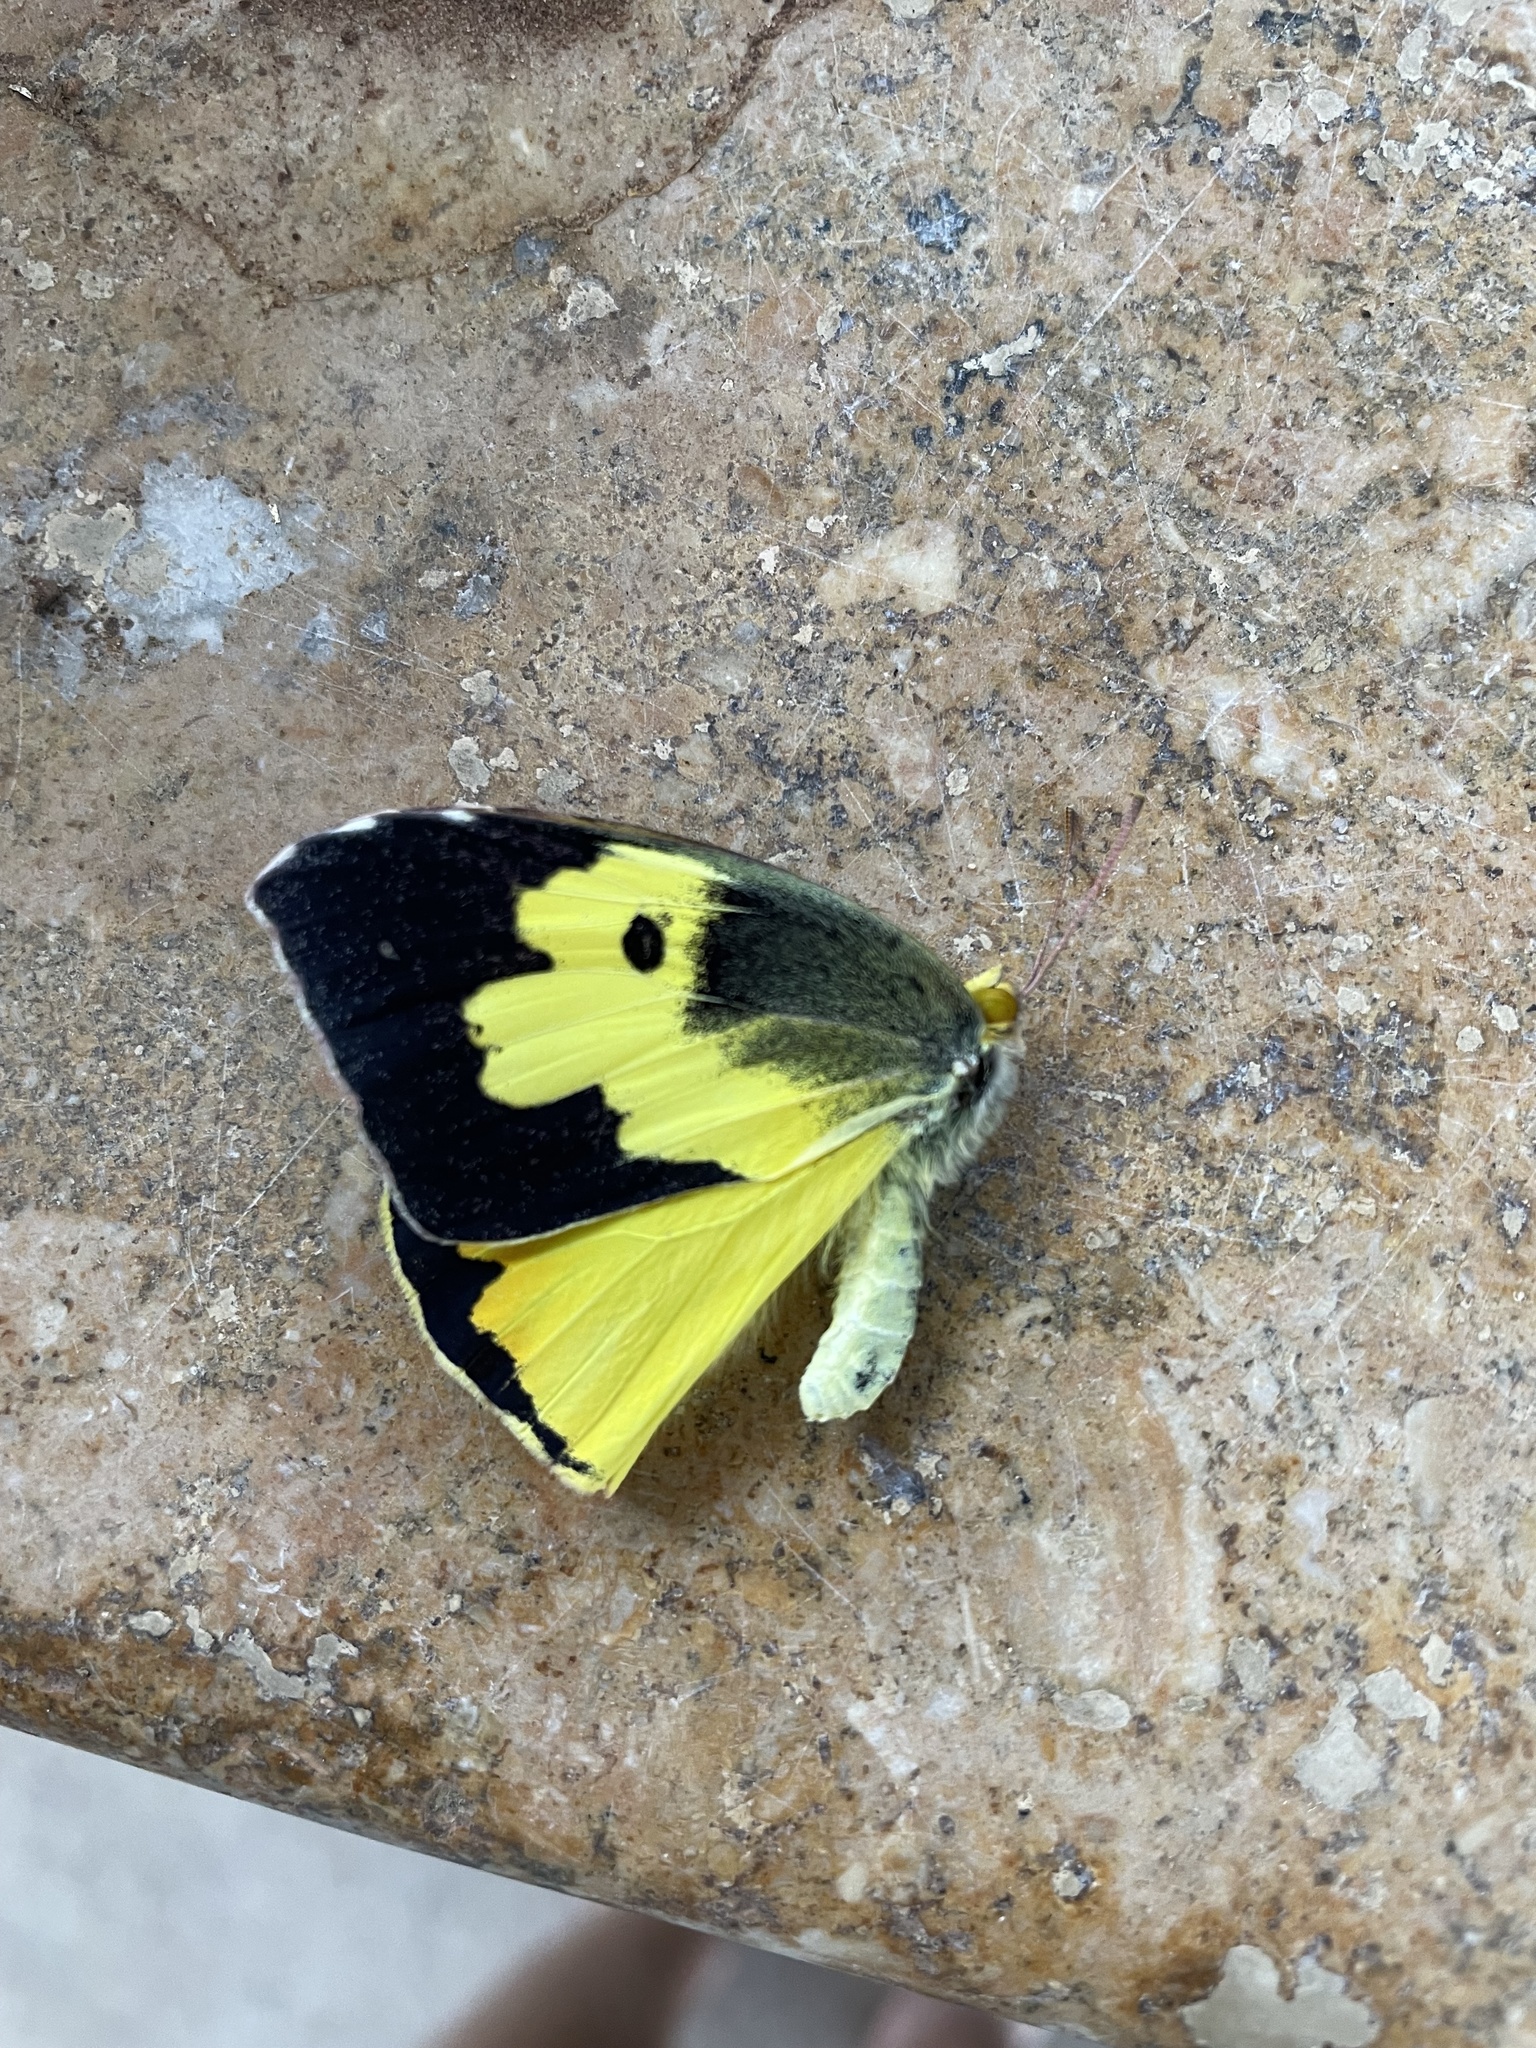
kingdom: Animalia
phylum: Arthropoda
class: Insecta
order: Lepidoptera
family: Pieridae
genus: Zerene
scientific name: Zerene cesonia
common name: Southern dogface
